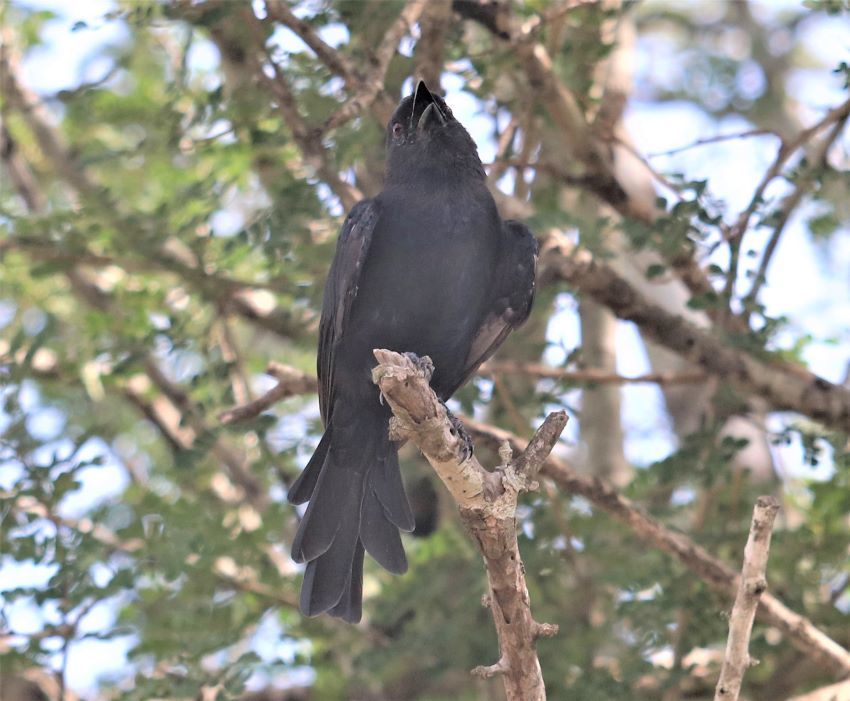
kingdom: Animalia
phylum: Chordata
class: Aves
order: Passeriformes
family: Muscicapidae
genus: Melaenornis
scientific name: Melaenornis pammelaina
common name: Southern black flycatcher
